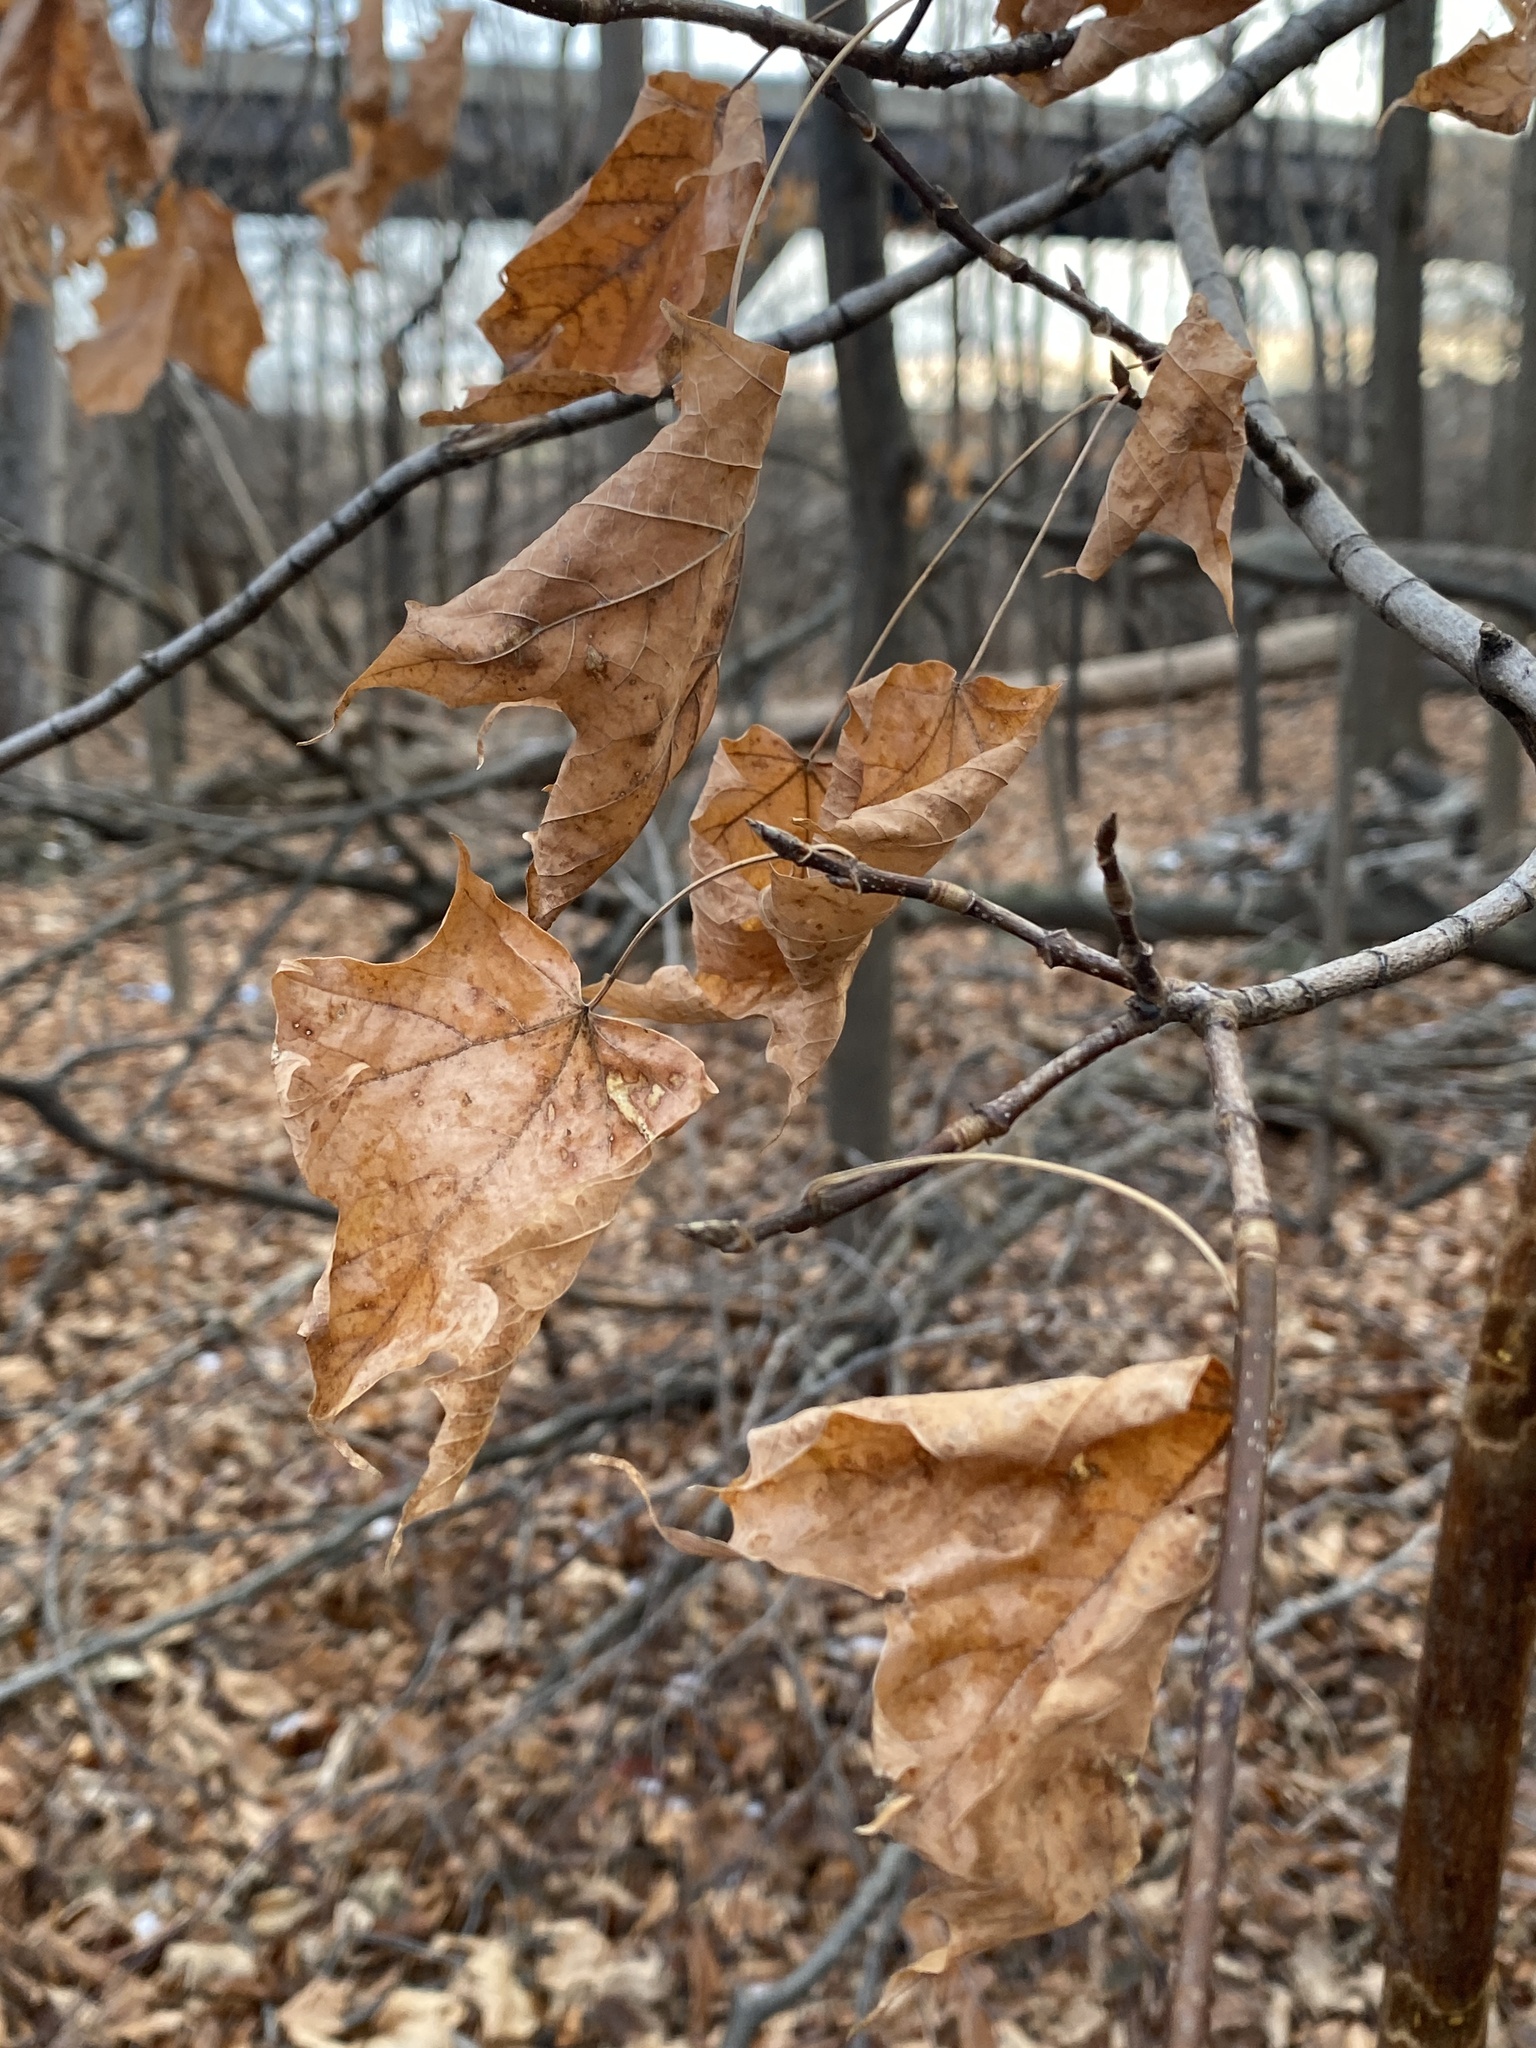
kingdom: Plantae
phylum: Tracheophyta
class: Magnoliopsida
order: Sapindales
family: Sapindaceae
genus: Acer
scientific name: Acer saccharum
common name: Sugar maple
